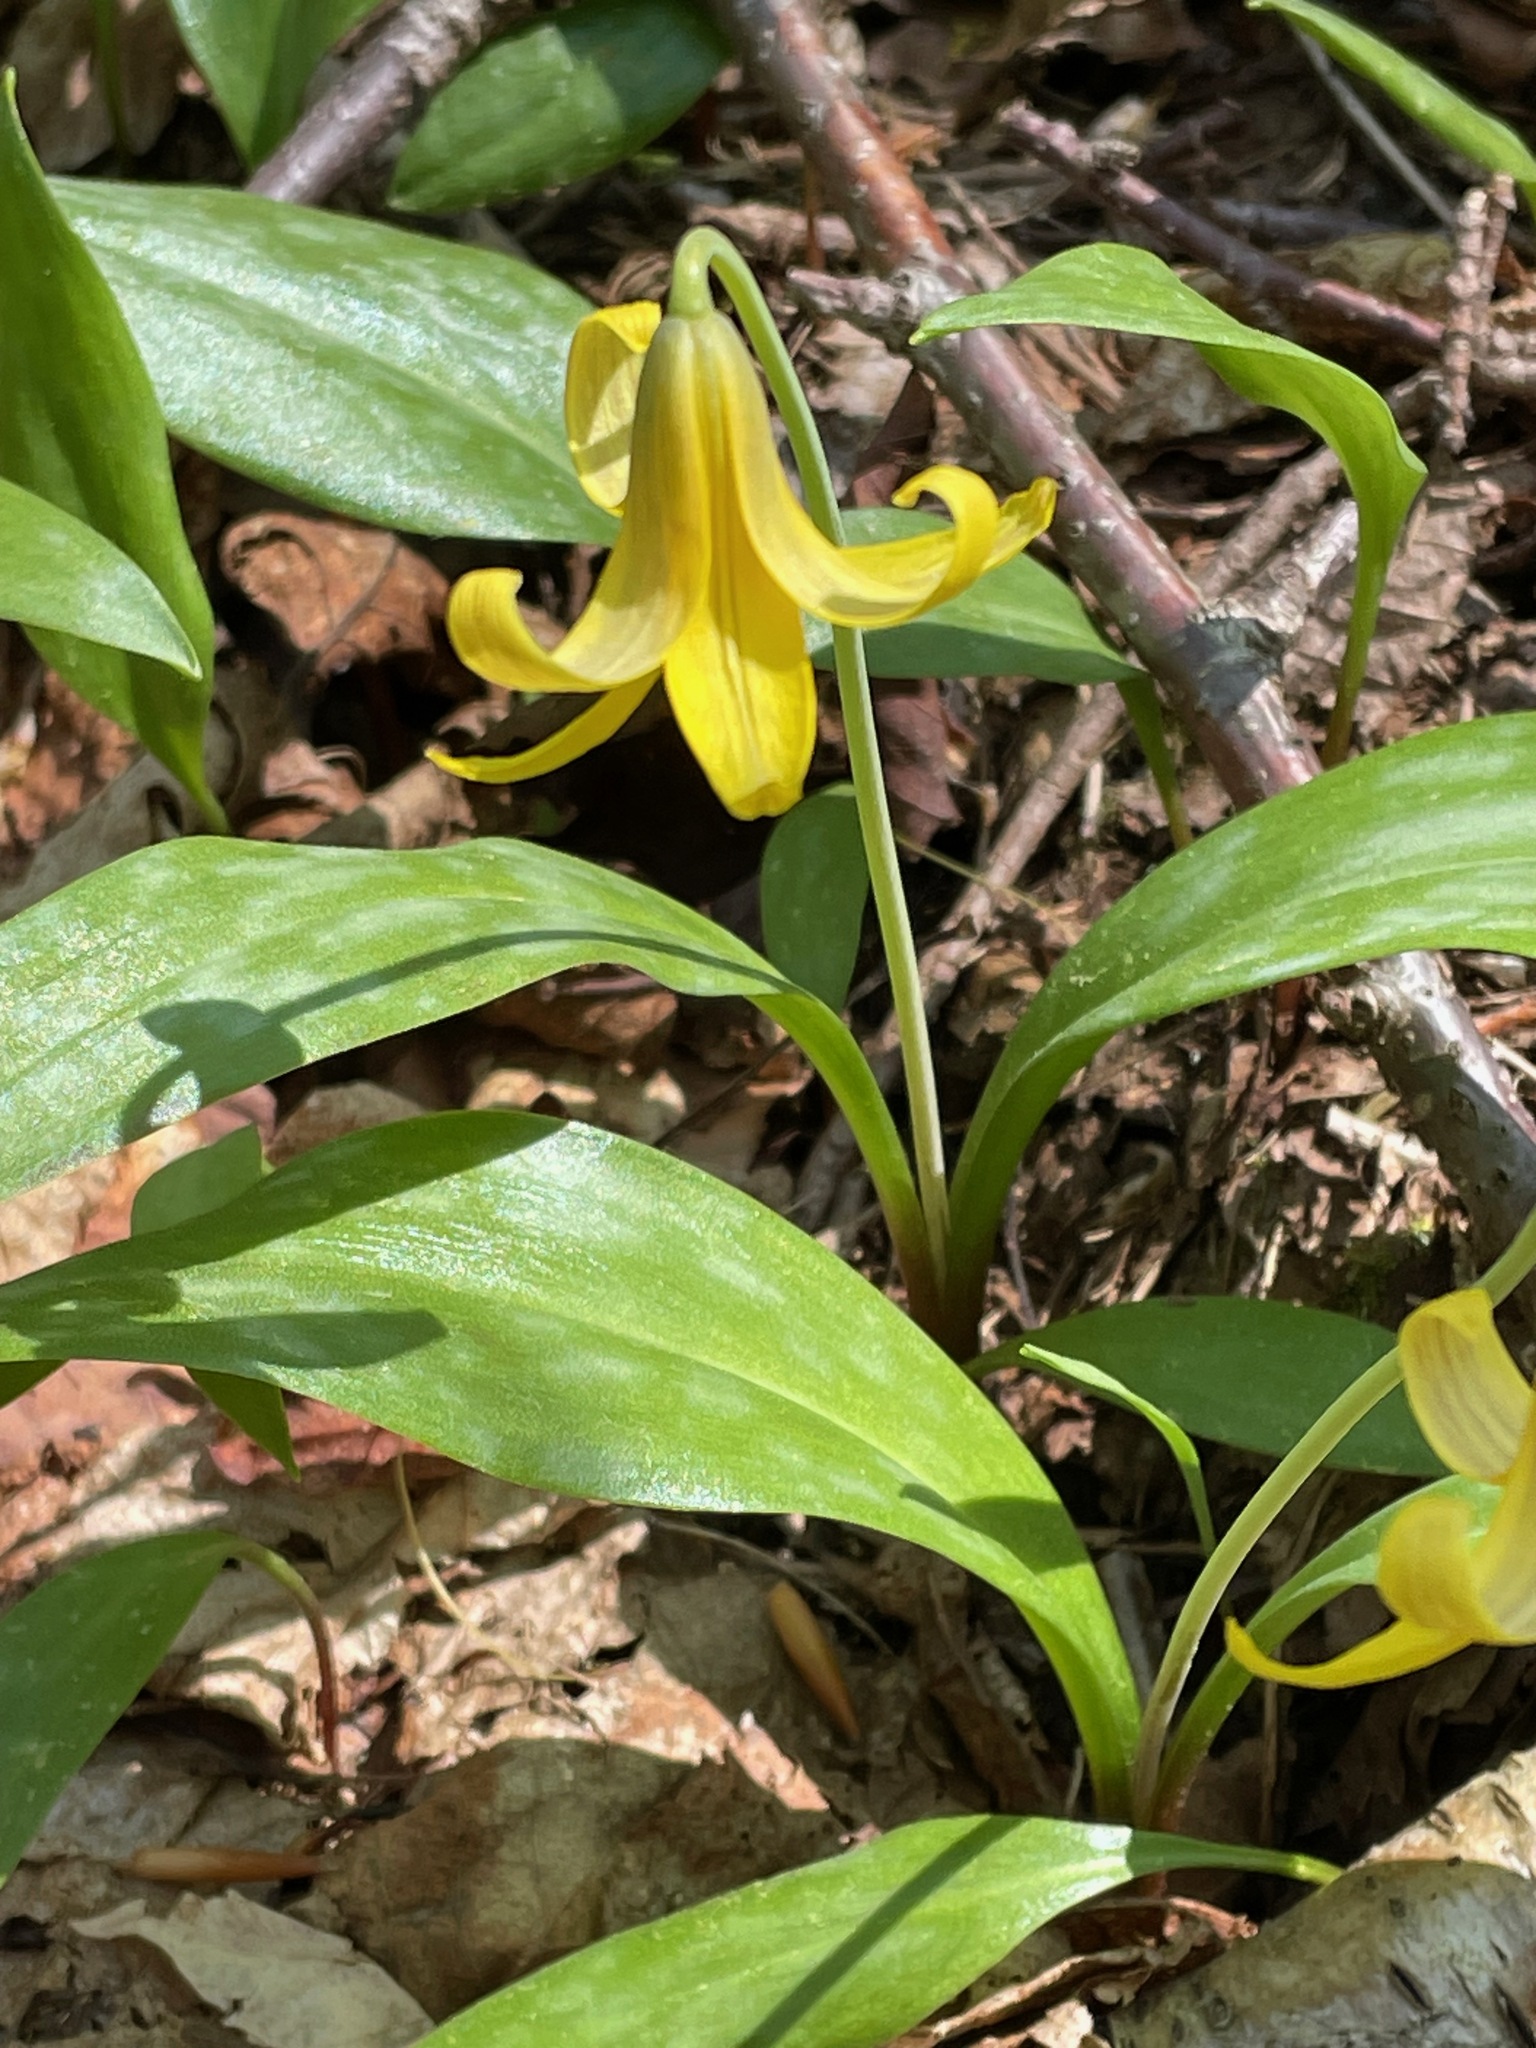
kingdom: Plantae
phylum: Tracheophyta
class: Liliopsida
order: Liliales
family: Liliaceae
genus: Erythronium
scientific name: Erythronium americanum
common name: Yellow adder's-tongue
